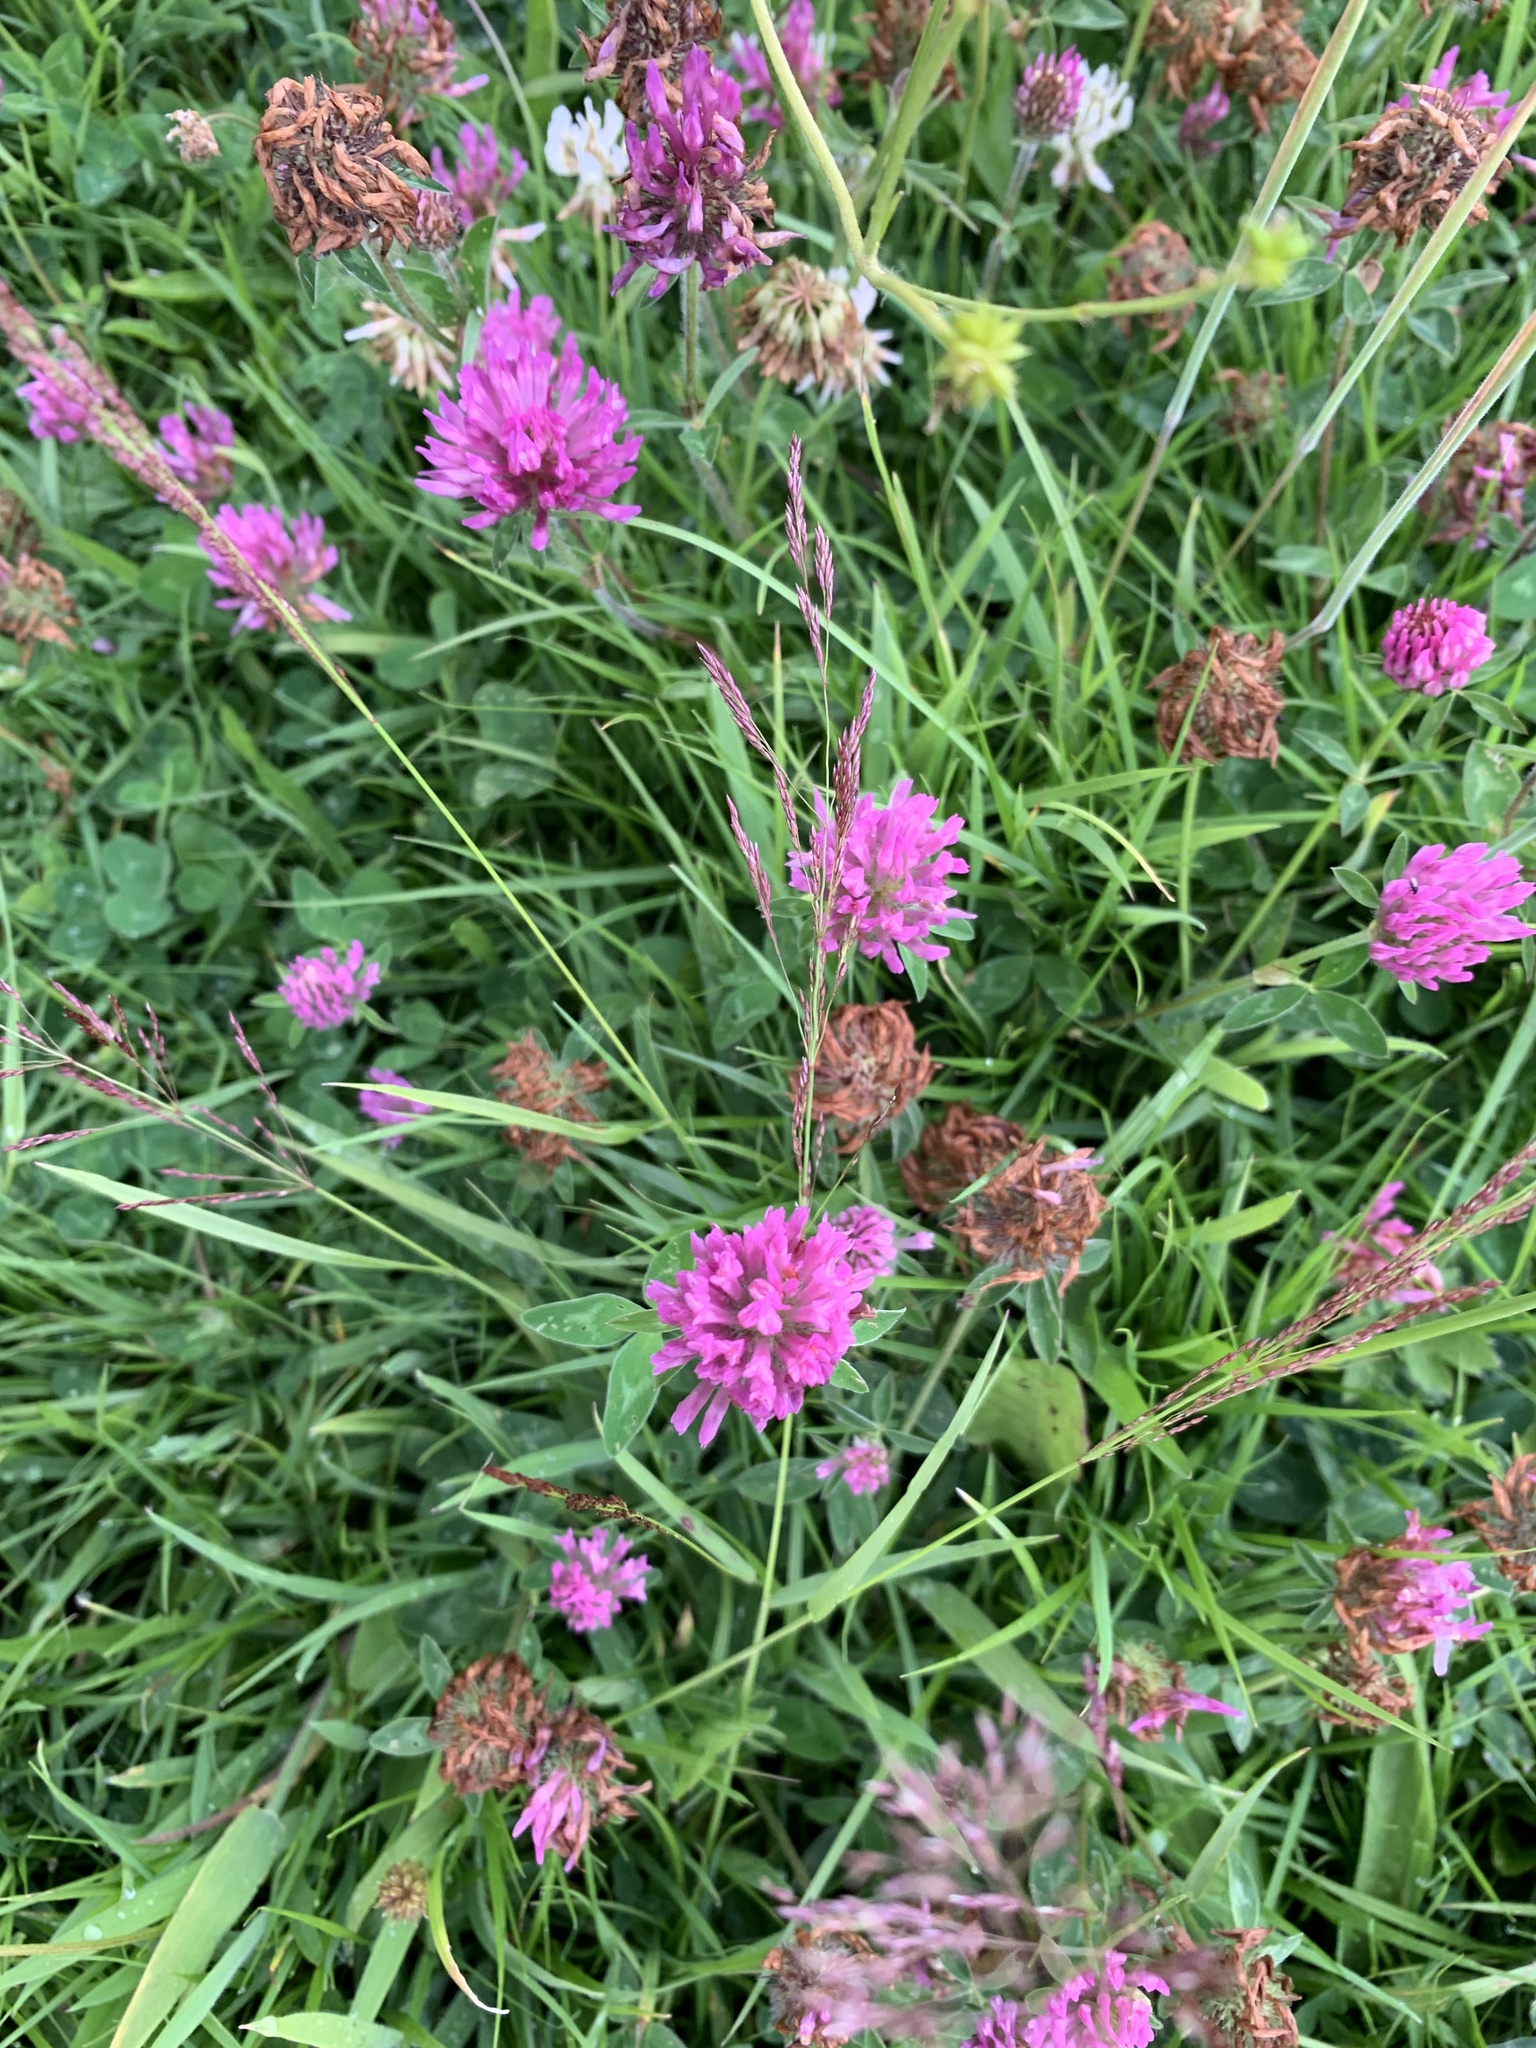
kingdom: Plantae
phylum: Tracheophyta
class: Magnoliopsida
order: Fabales
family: Fabaceae
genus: Trifolium
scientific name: Trifolium pratense
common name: Red clover
